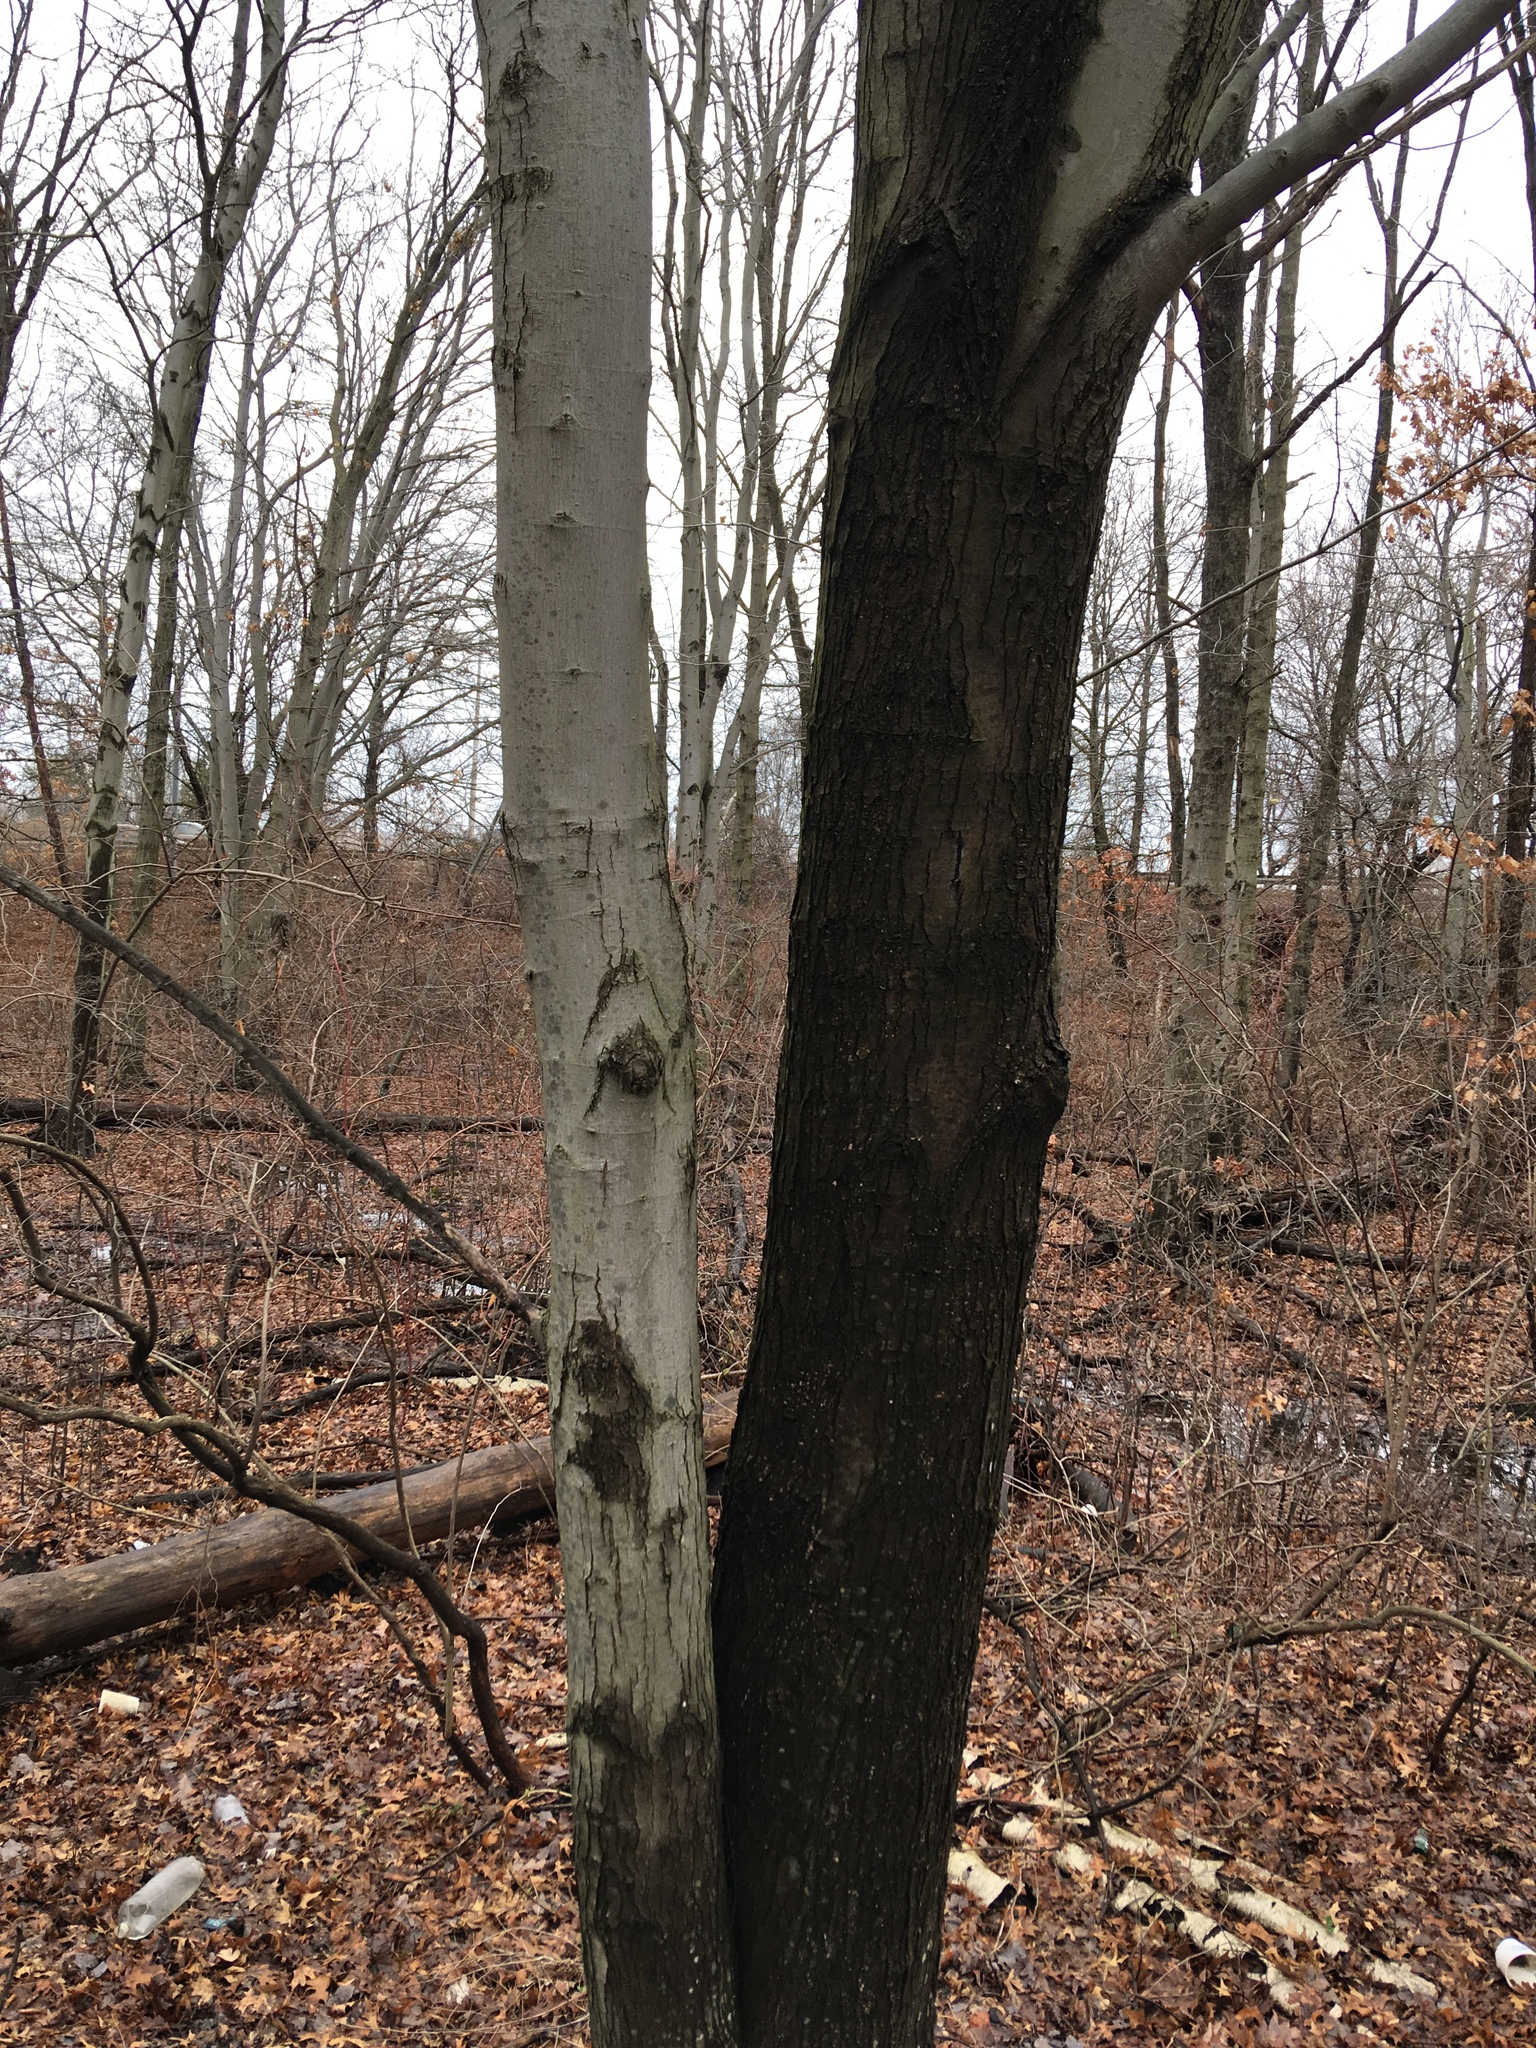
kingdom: Plantae
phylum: Tracheophyta
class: Magnoliopsida
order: Sapindales
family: Sapindaceae
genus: Acer
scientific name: Acer rubrum
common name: Red maple
